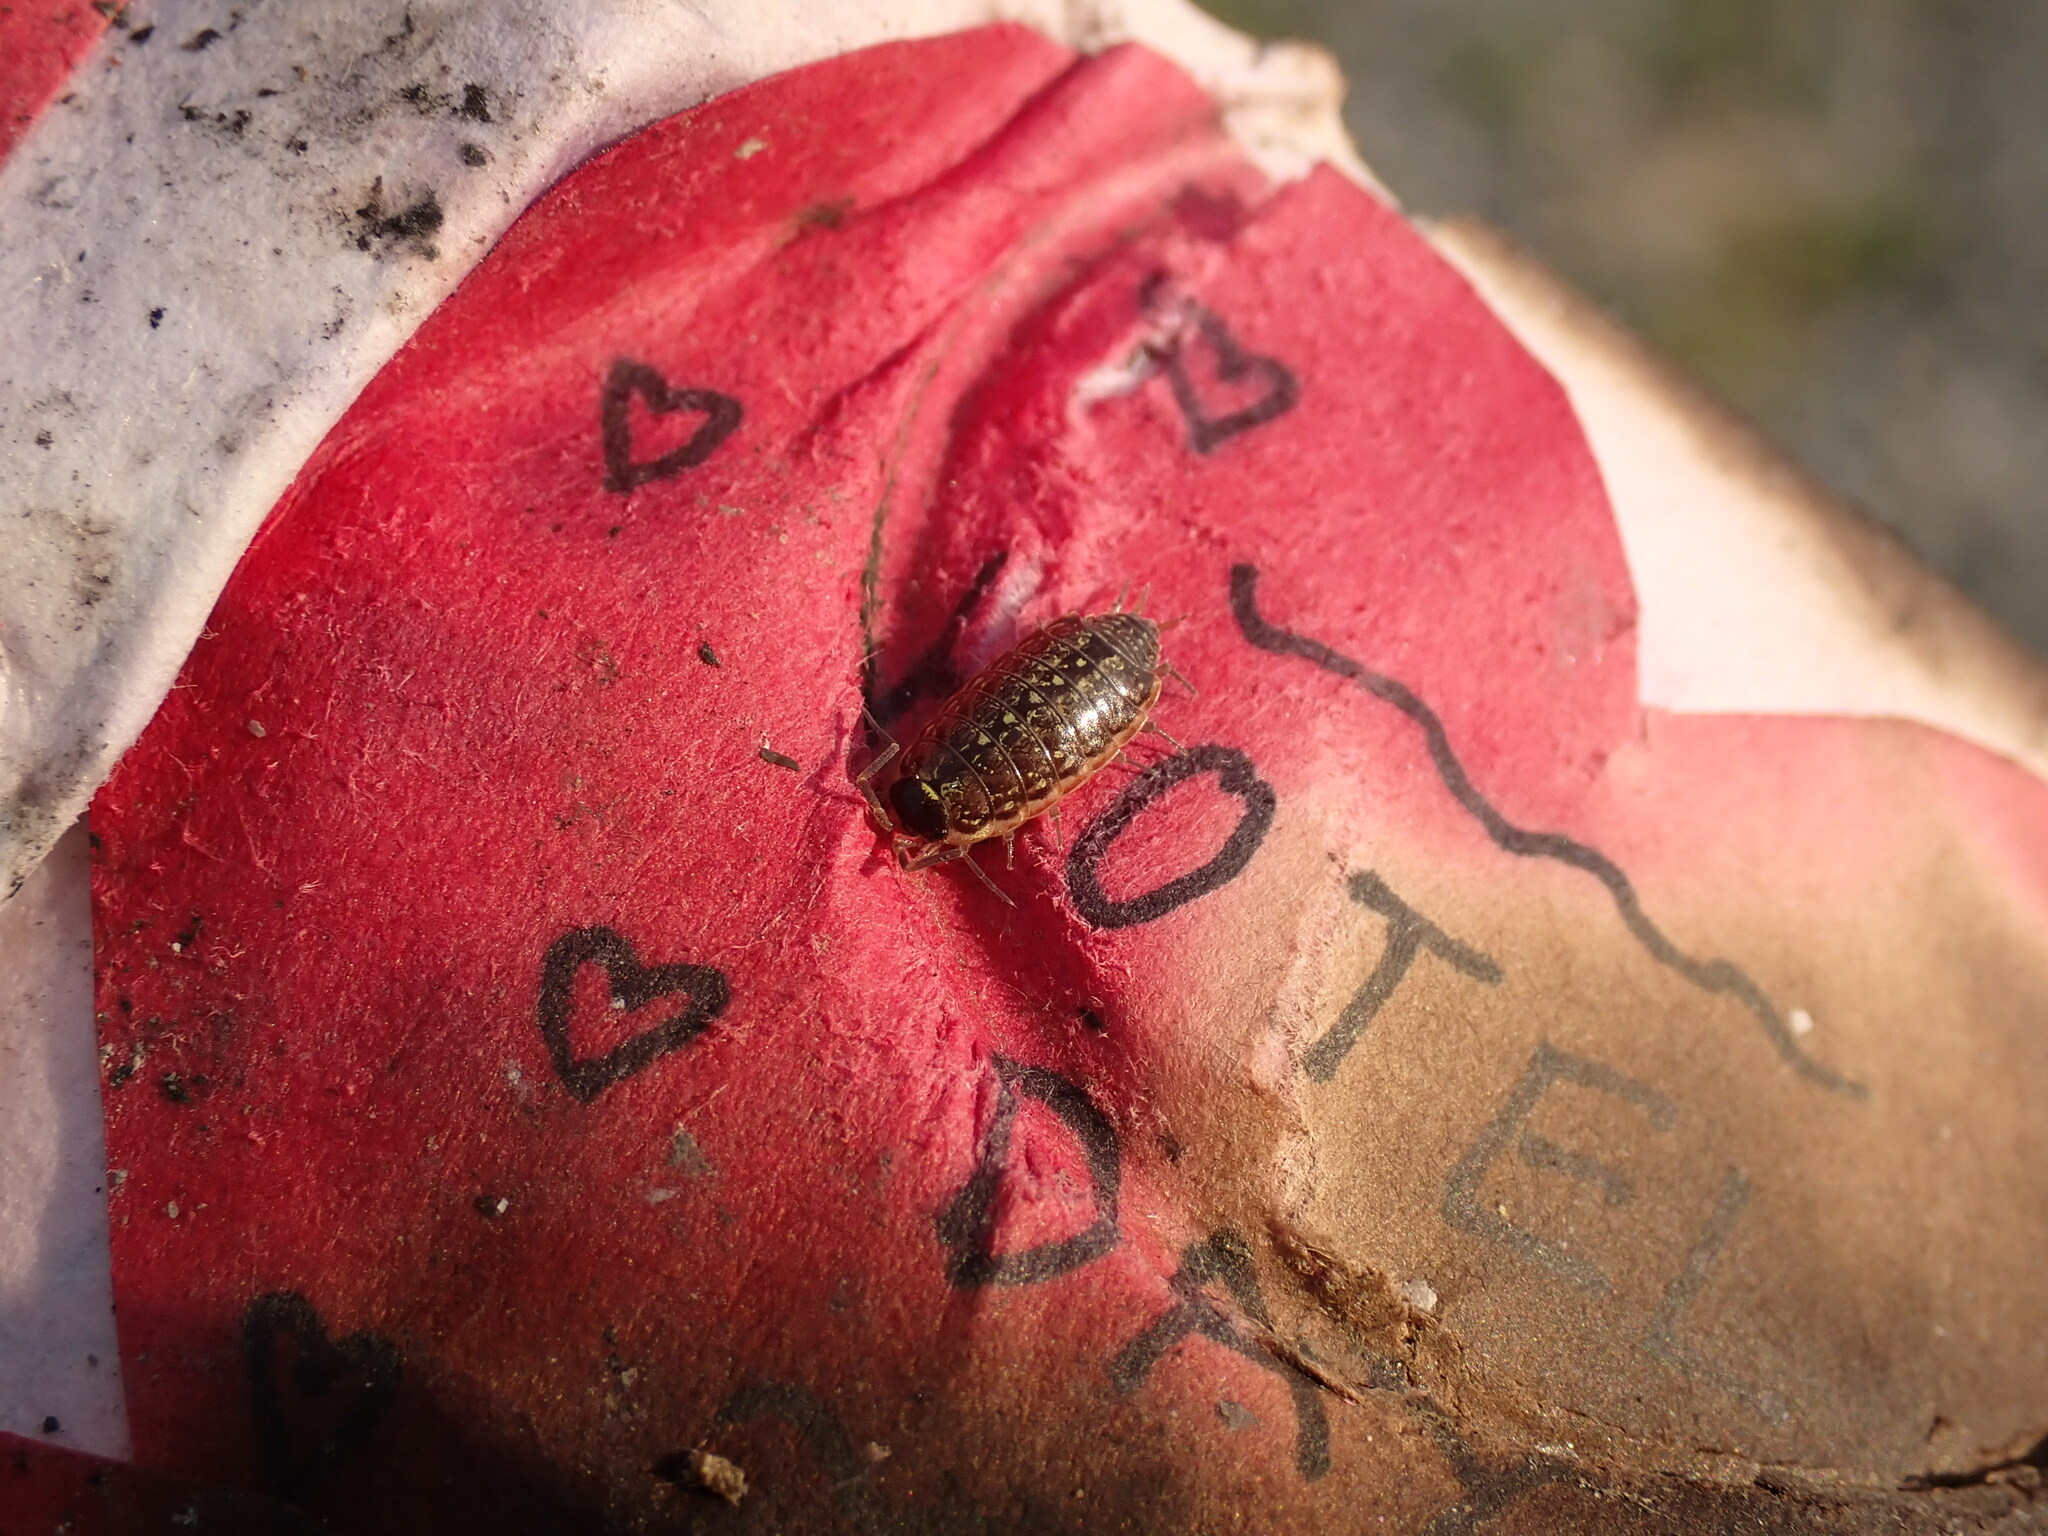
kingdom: Animalia
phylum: Arthropoda
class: Malacostraca
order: Isopoda
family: Philosciidae
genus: Philoscia
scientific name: Philoscia muscorum
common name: Common striped woodlouse
